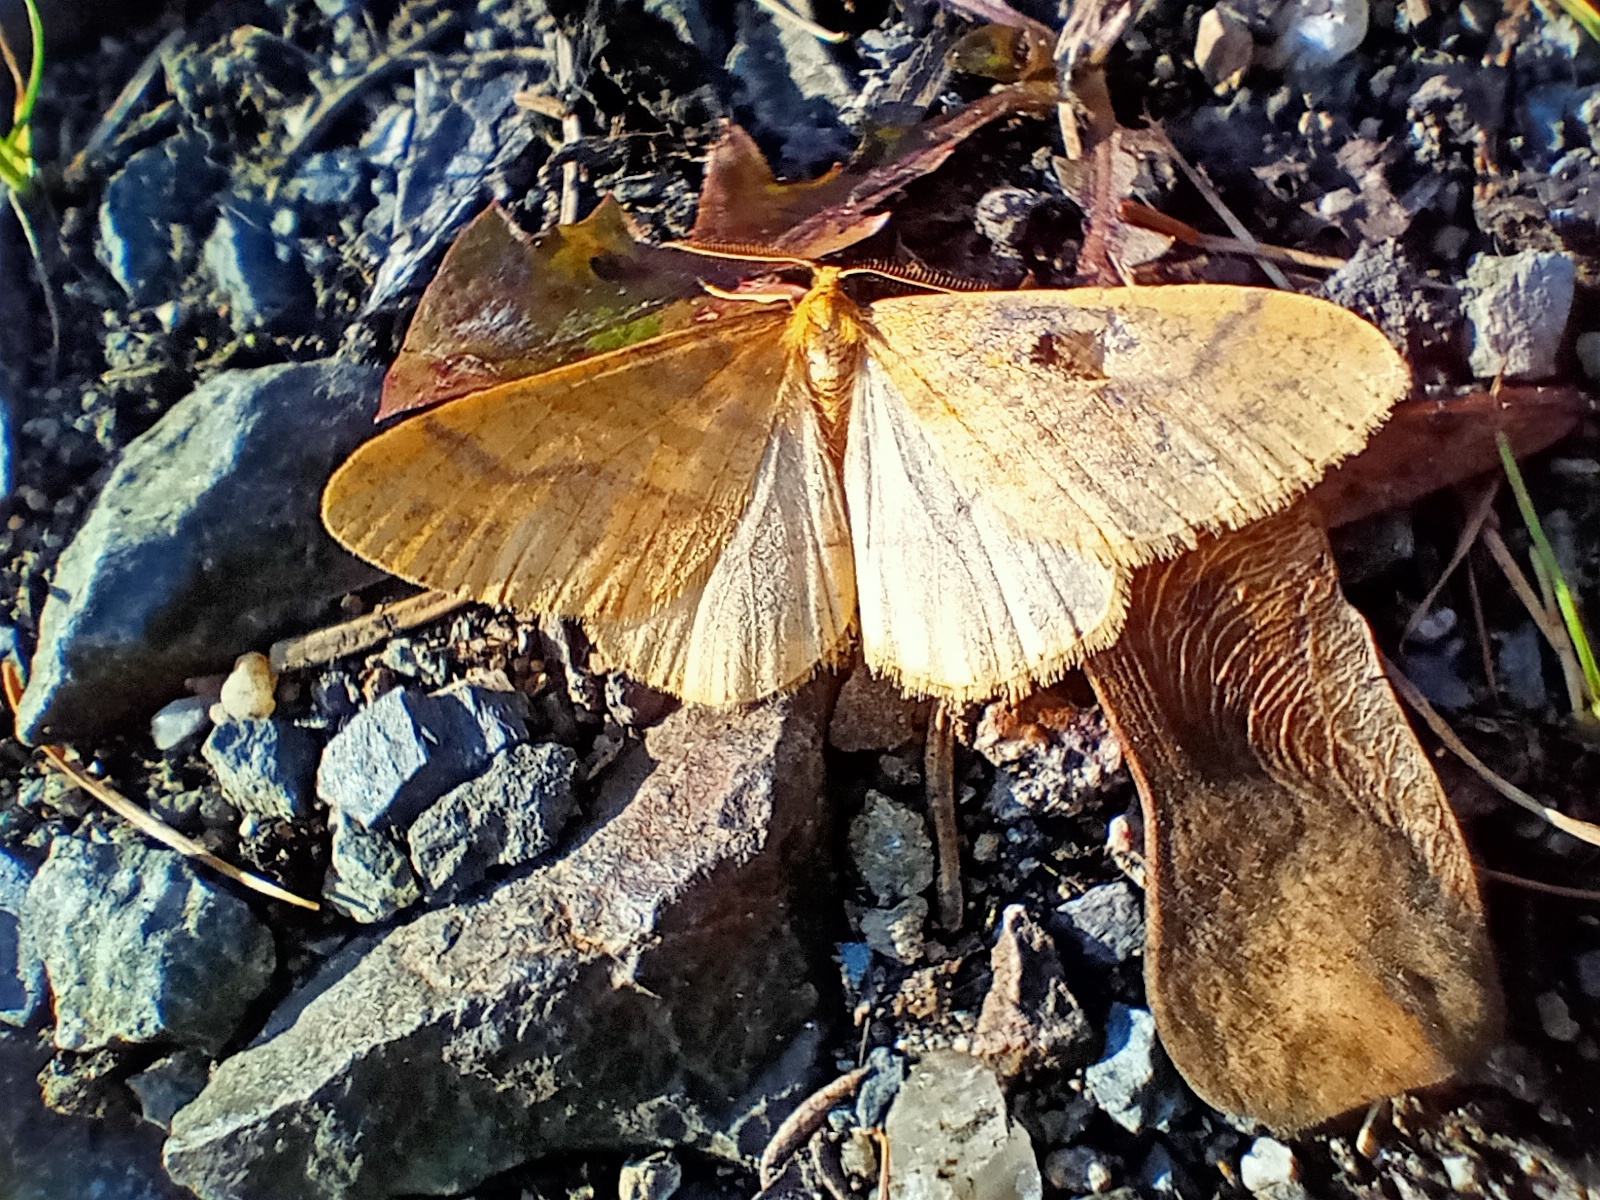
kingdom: Animalia
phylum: Arthropoda
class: Insecta
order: Lepidoptera
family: Geometridae
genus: Agriopis
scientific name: Agriopis aurantiaria
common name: Scarce umber
